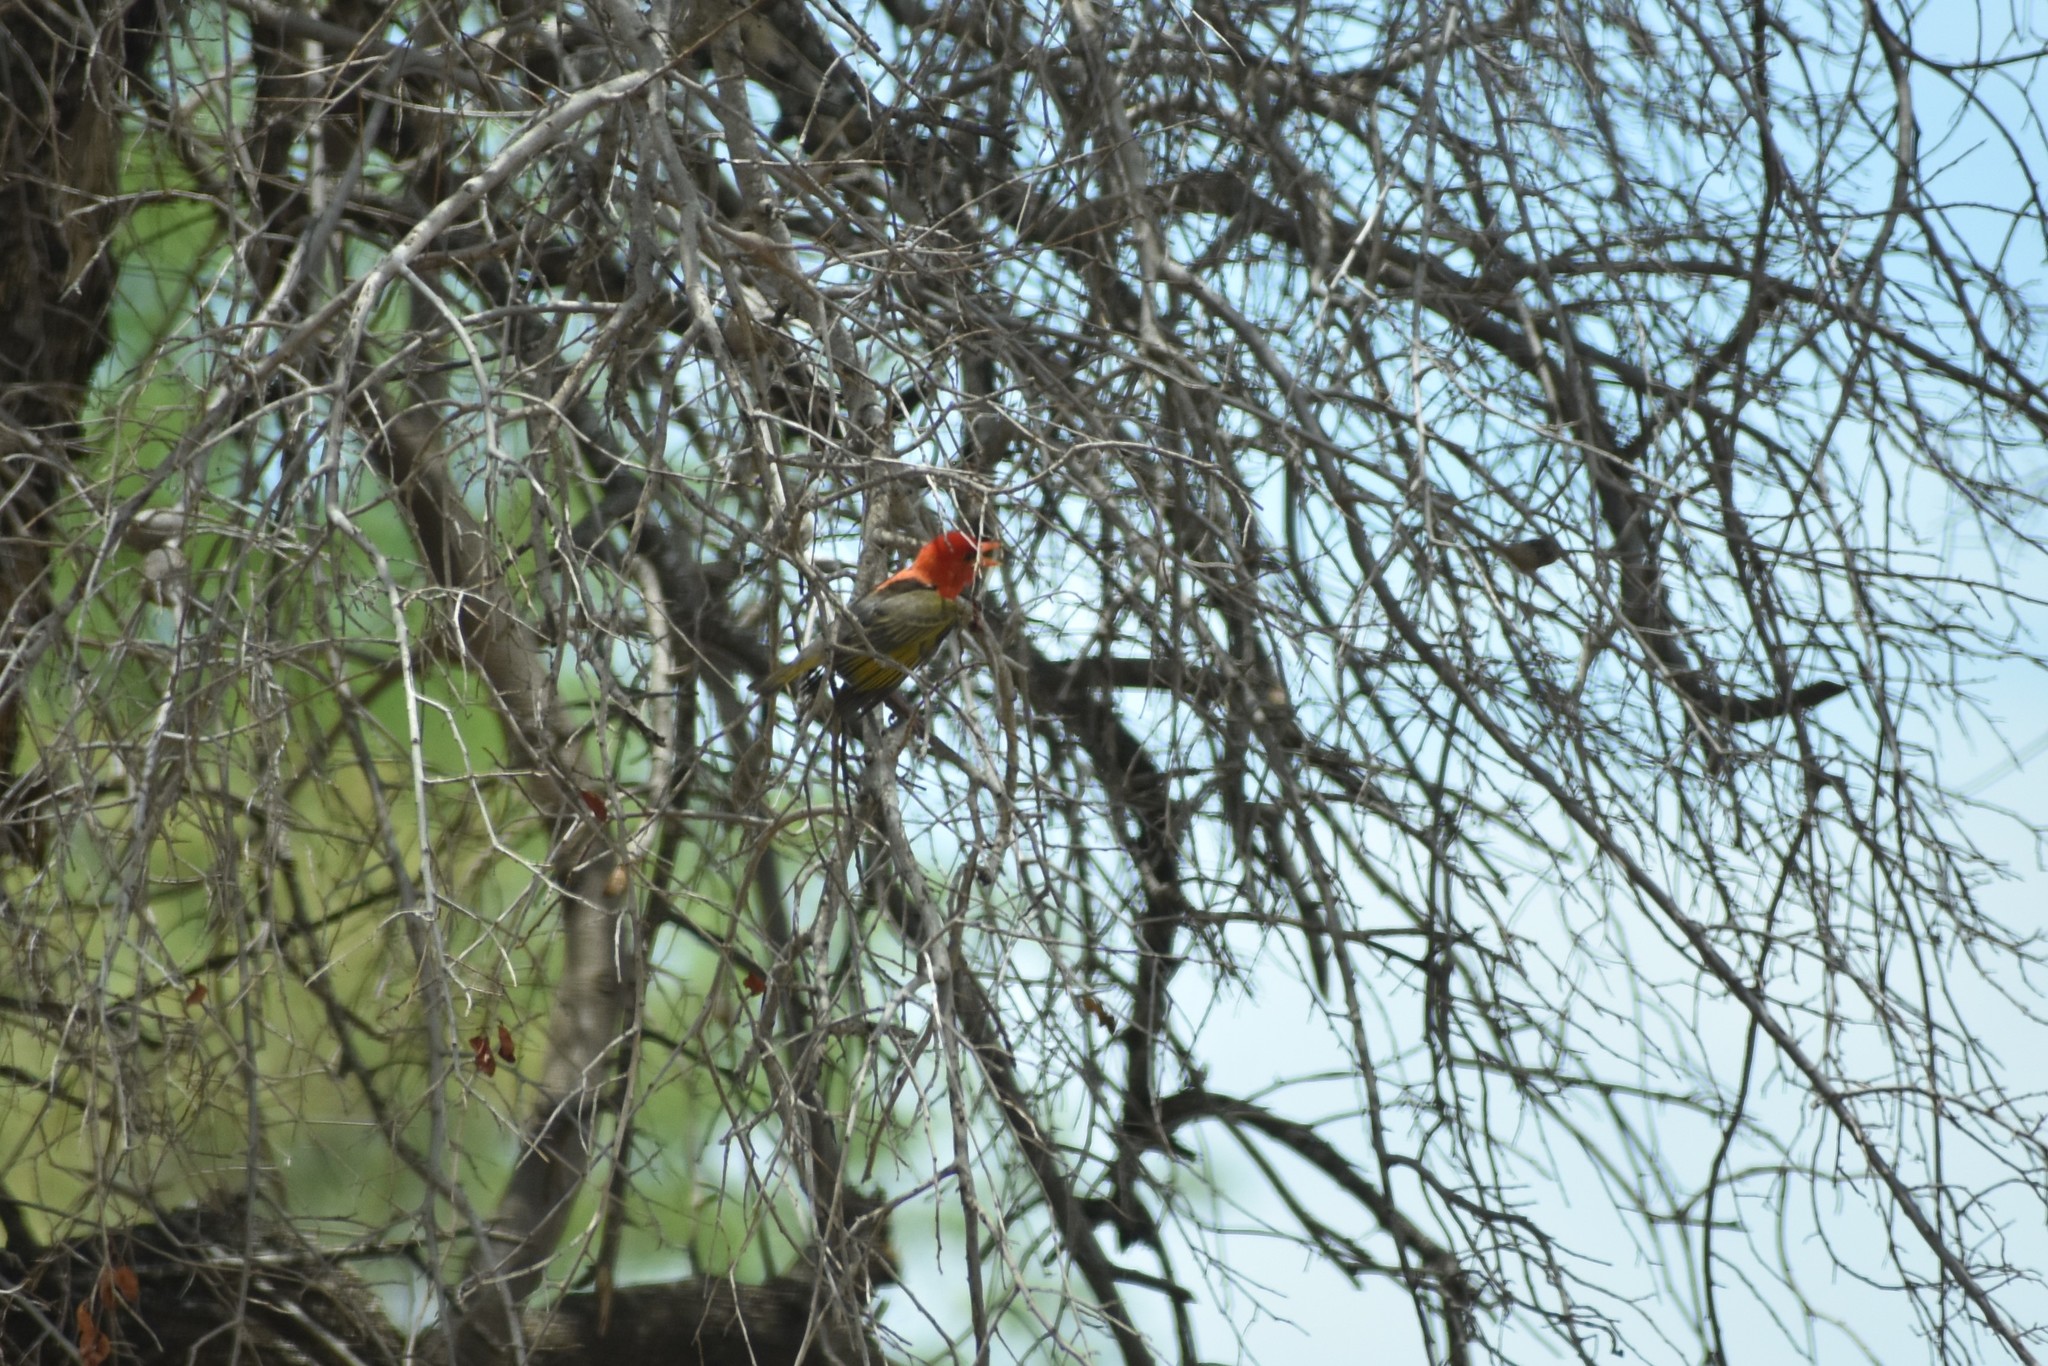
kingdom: Animalia
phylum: Chordata
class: Aves
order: Passeriformes
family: Ploceidae
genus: Anaplectes
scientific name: Anaplectes rubriceps
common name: Red-headed weaver
